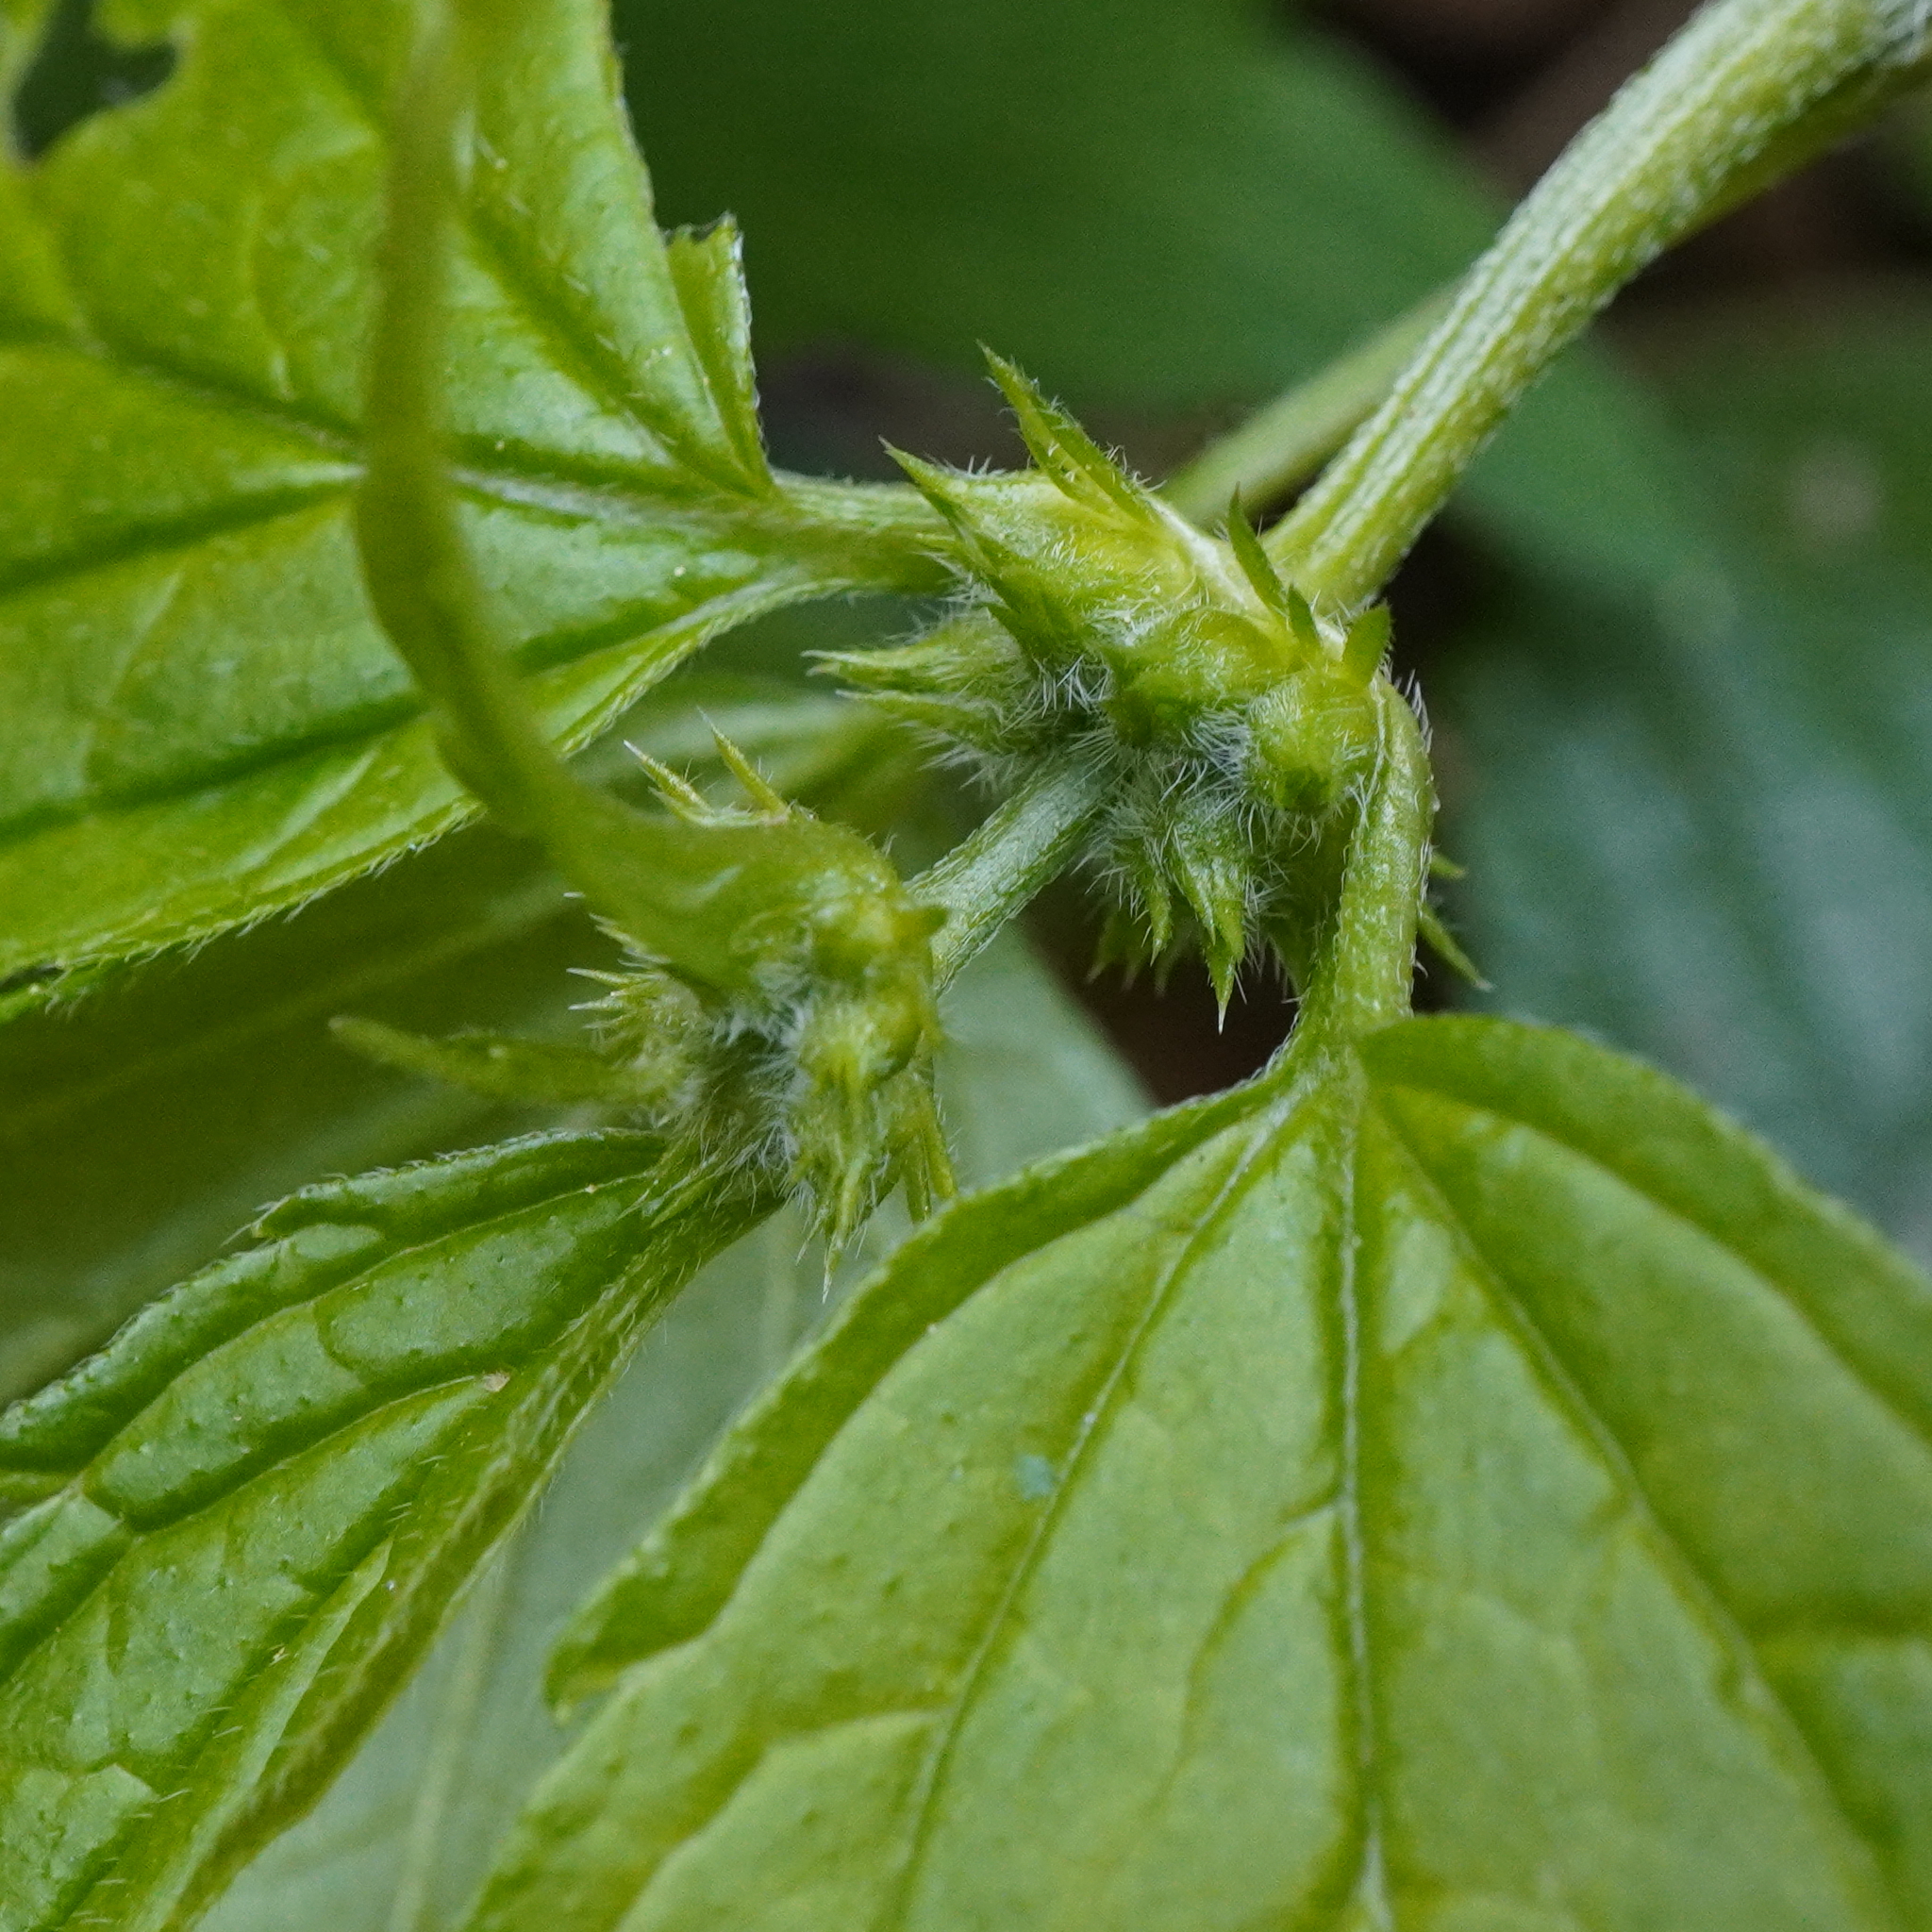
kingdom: Plantae
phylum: Tracheophyta
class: Magnoliopsida
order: Lamiales
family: Lamiaceae
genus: Lamium
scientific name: Lamium galeobdolon
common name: Yellow archangel
